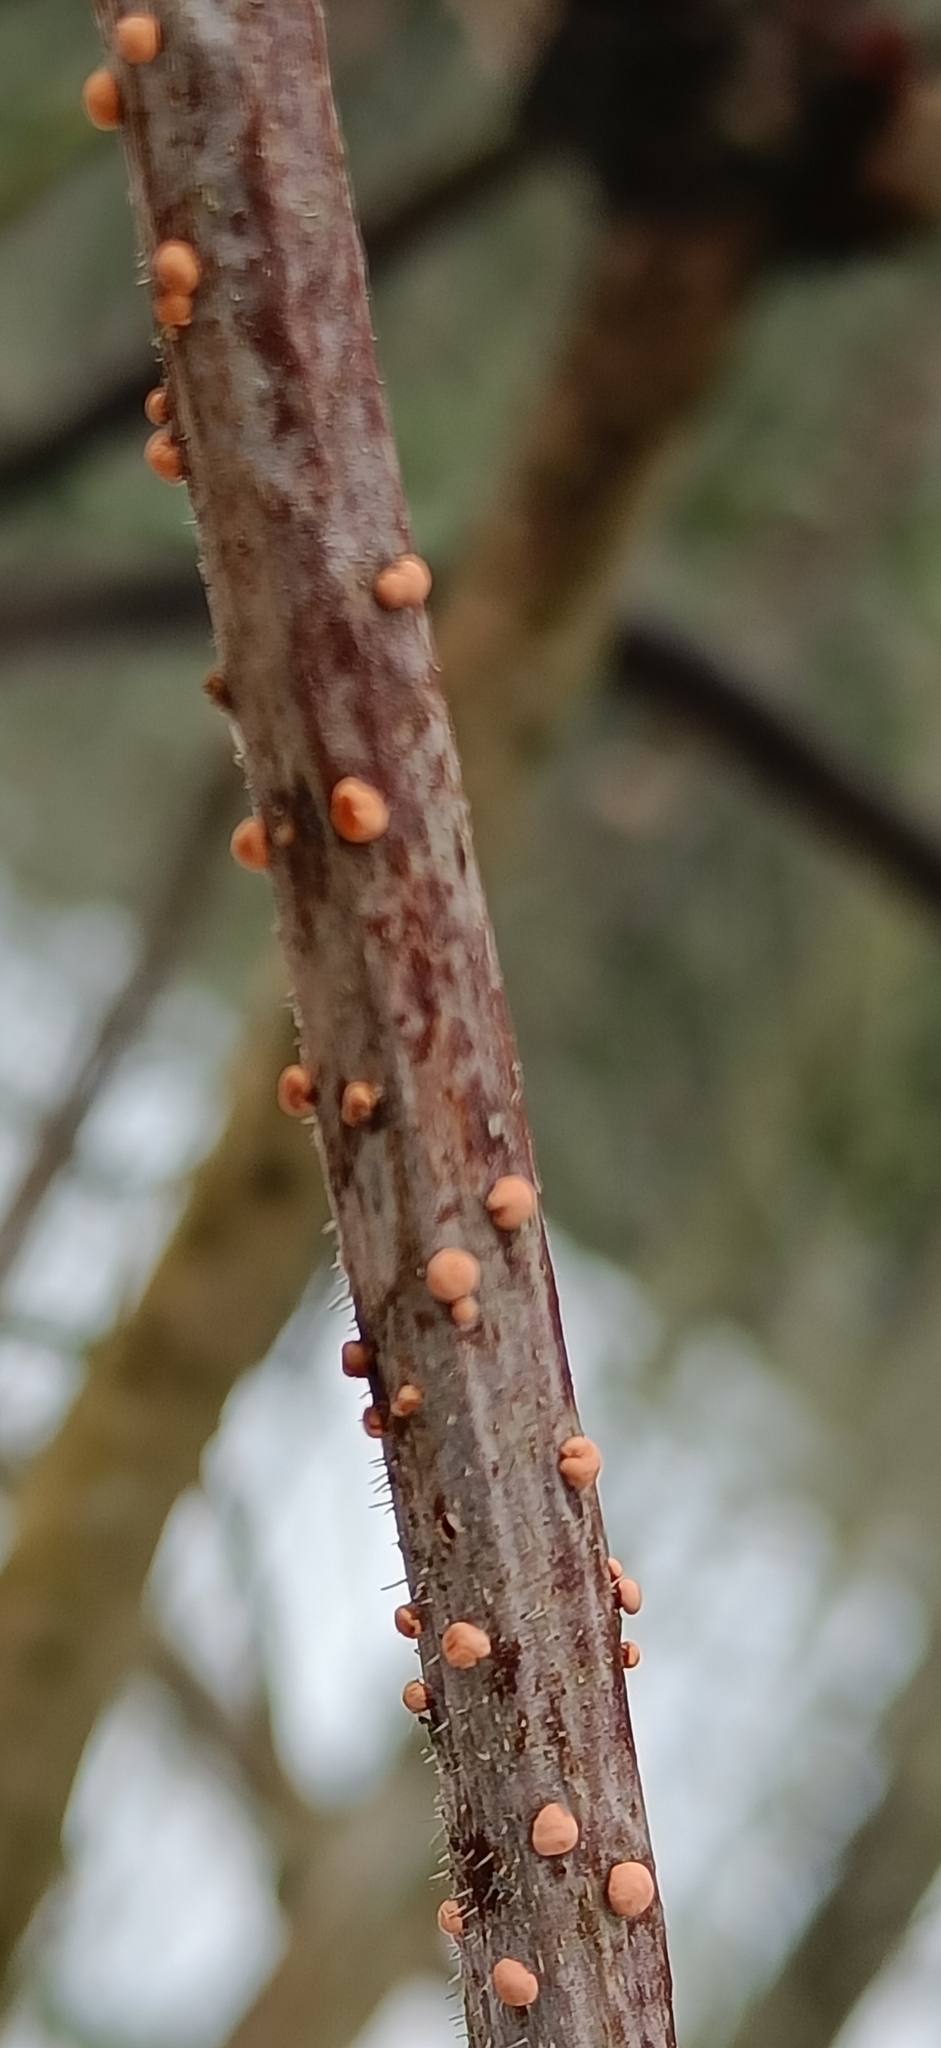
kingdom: Fungi
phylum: Ascomycota
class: Sordariomycetes
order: Hypocreales
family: Nectriaceae
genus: Nectria
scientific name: Nectria cinnabarina
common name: Coral spot
